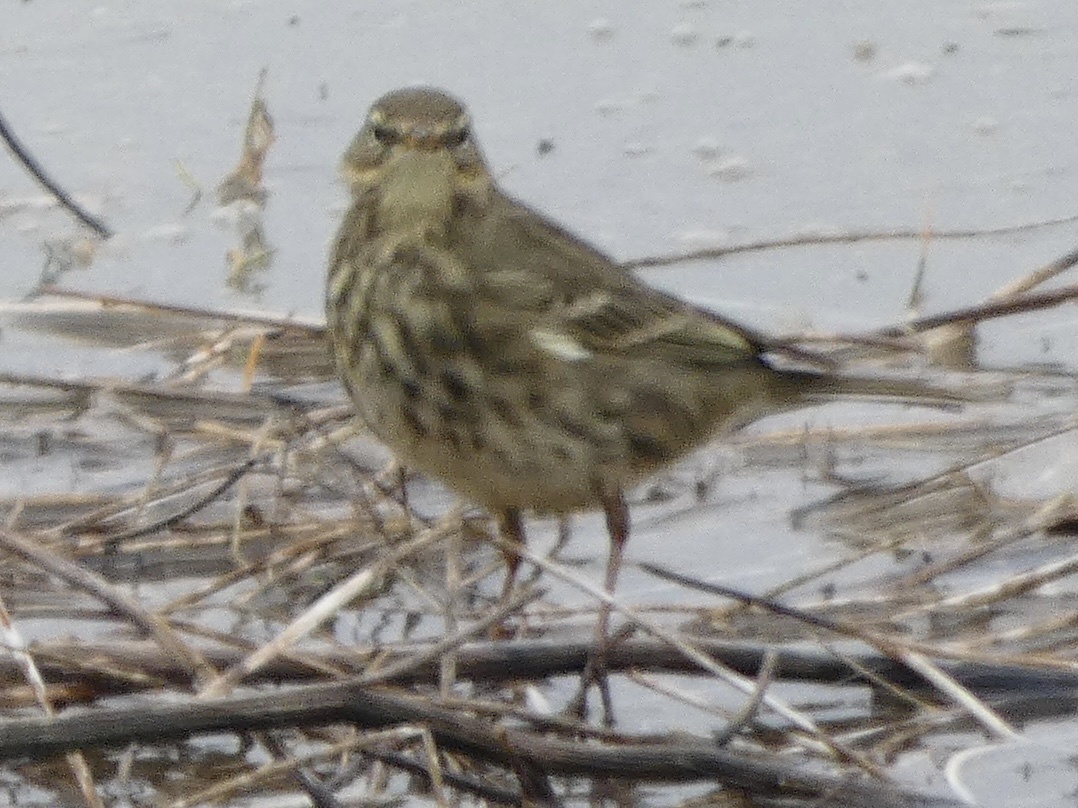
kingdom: Animalia
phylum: Chordata
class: Aves
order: Passeriformes
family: Motacillidae
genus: Anthus
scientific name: Anthus petrosus
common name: Eurasian rock pipit
